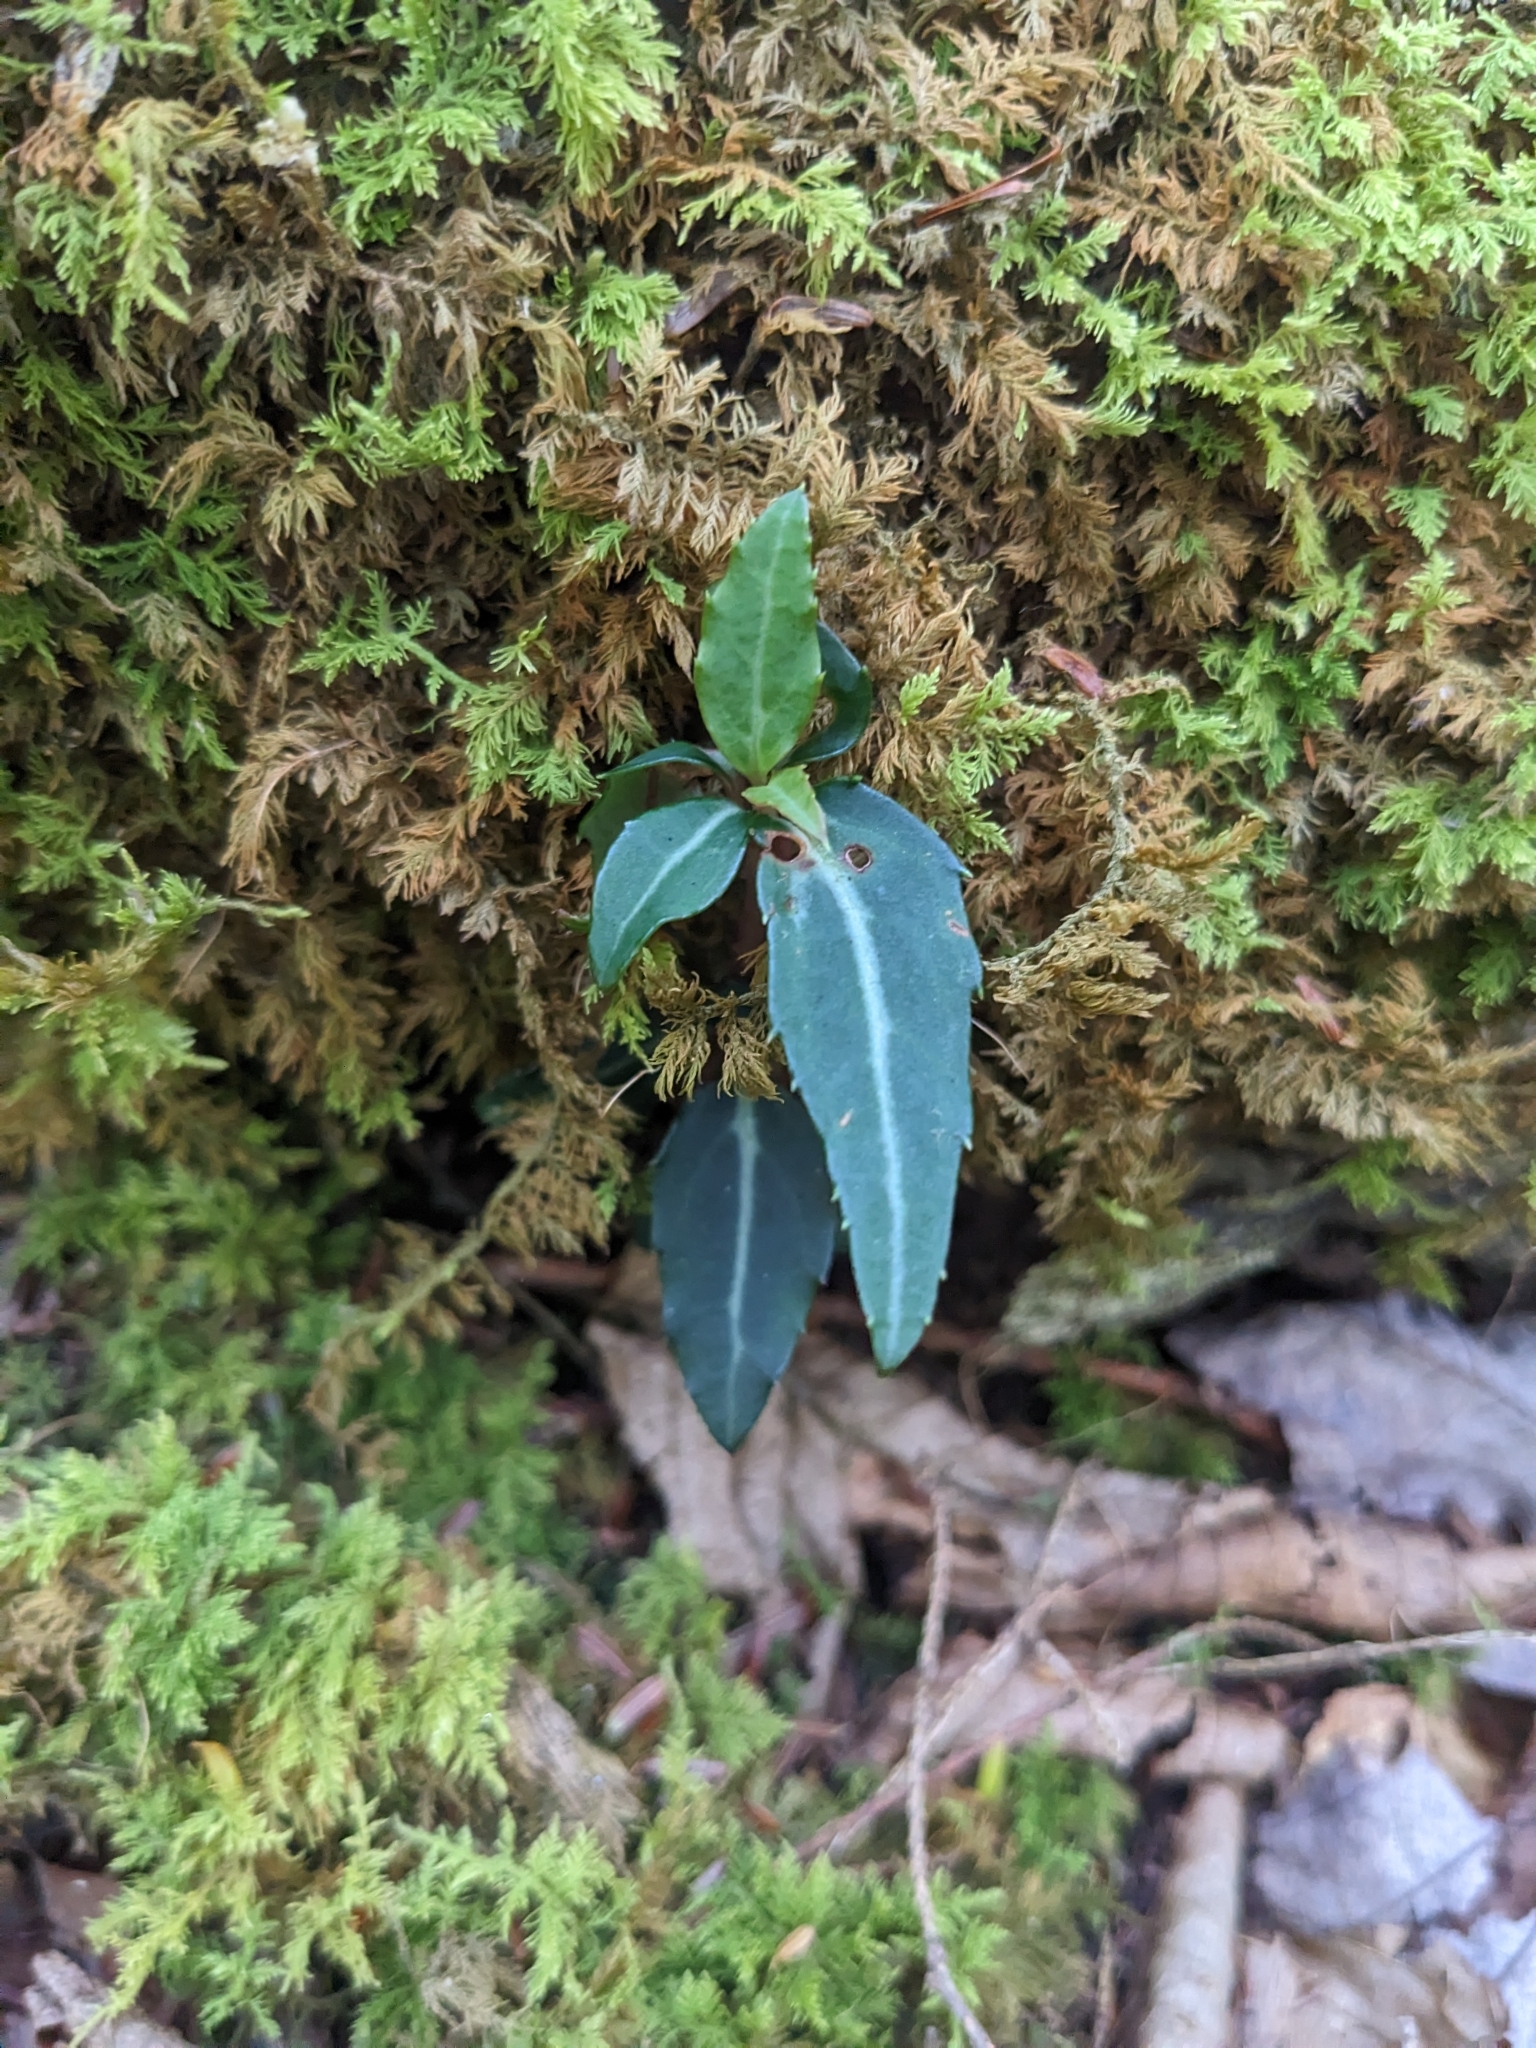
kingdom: Plantae
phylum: Tracheophyta
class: Magnoliopsida
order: Ericales
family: Ericaceae
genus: Chimaphila
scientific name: Chimaphila maculata
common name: Spotted pipsissewa
